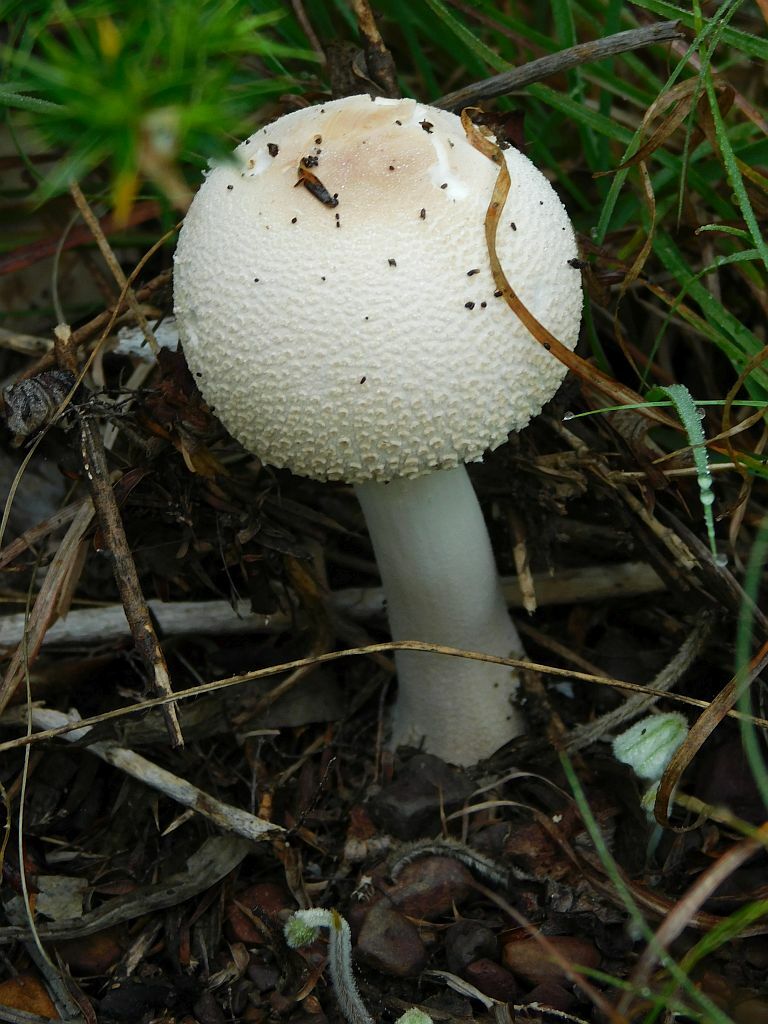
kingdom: Fungi
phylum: Basidiomycota
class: Agaricomycetes
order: Agaricales
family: Agaricaceae
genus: Macrolepiota
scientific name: Macrolepiota zeyheri
